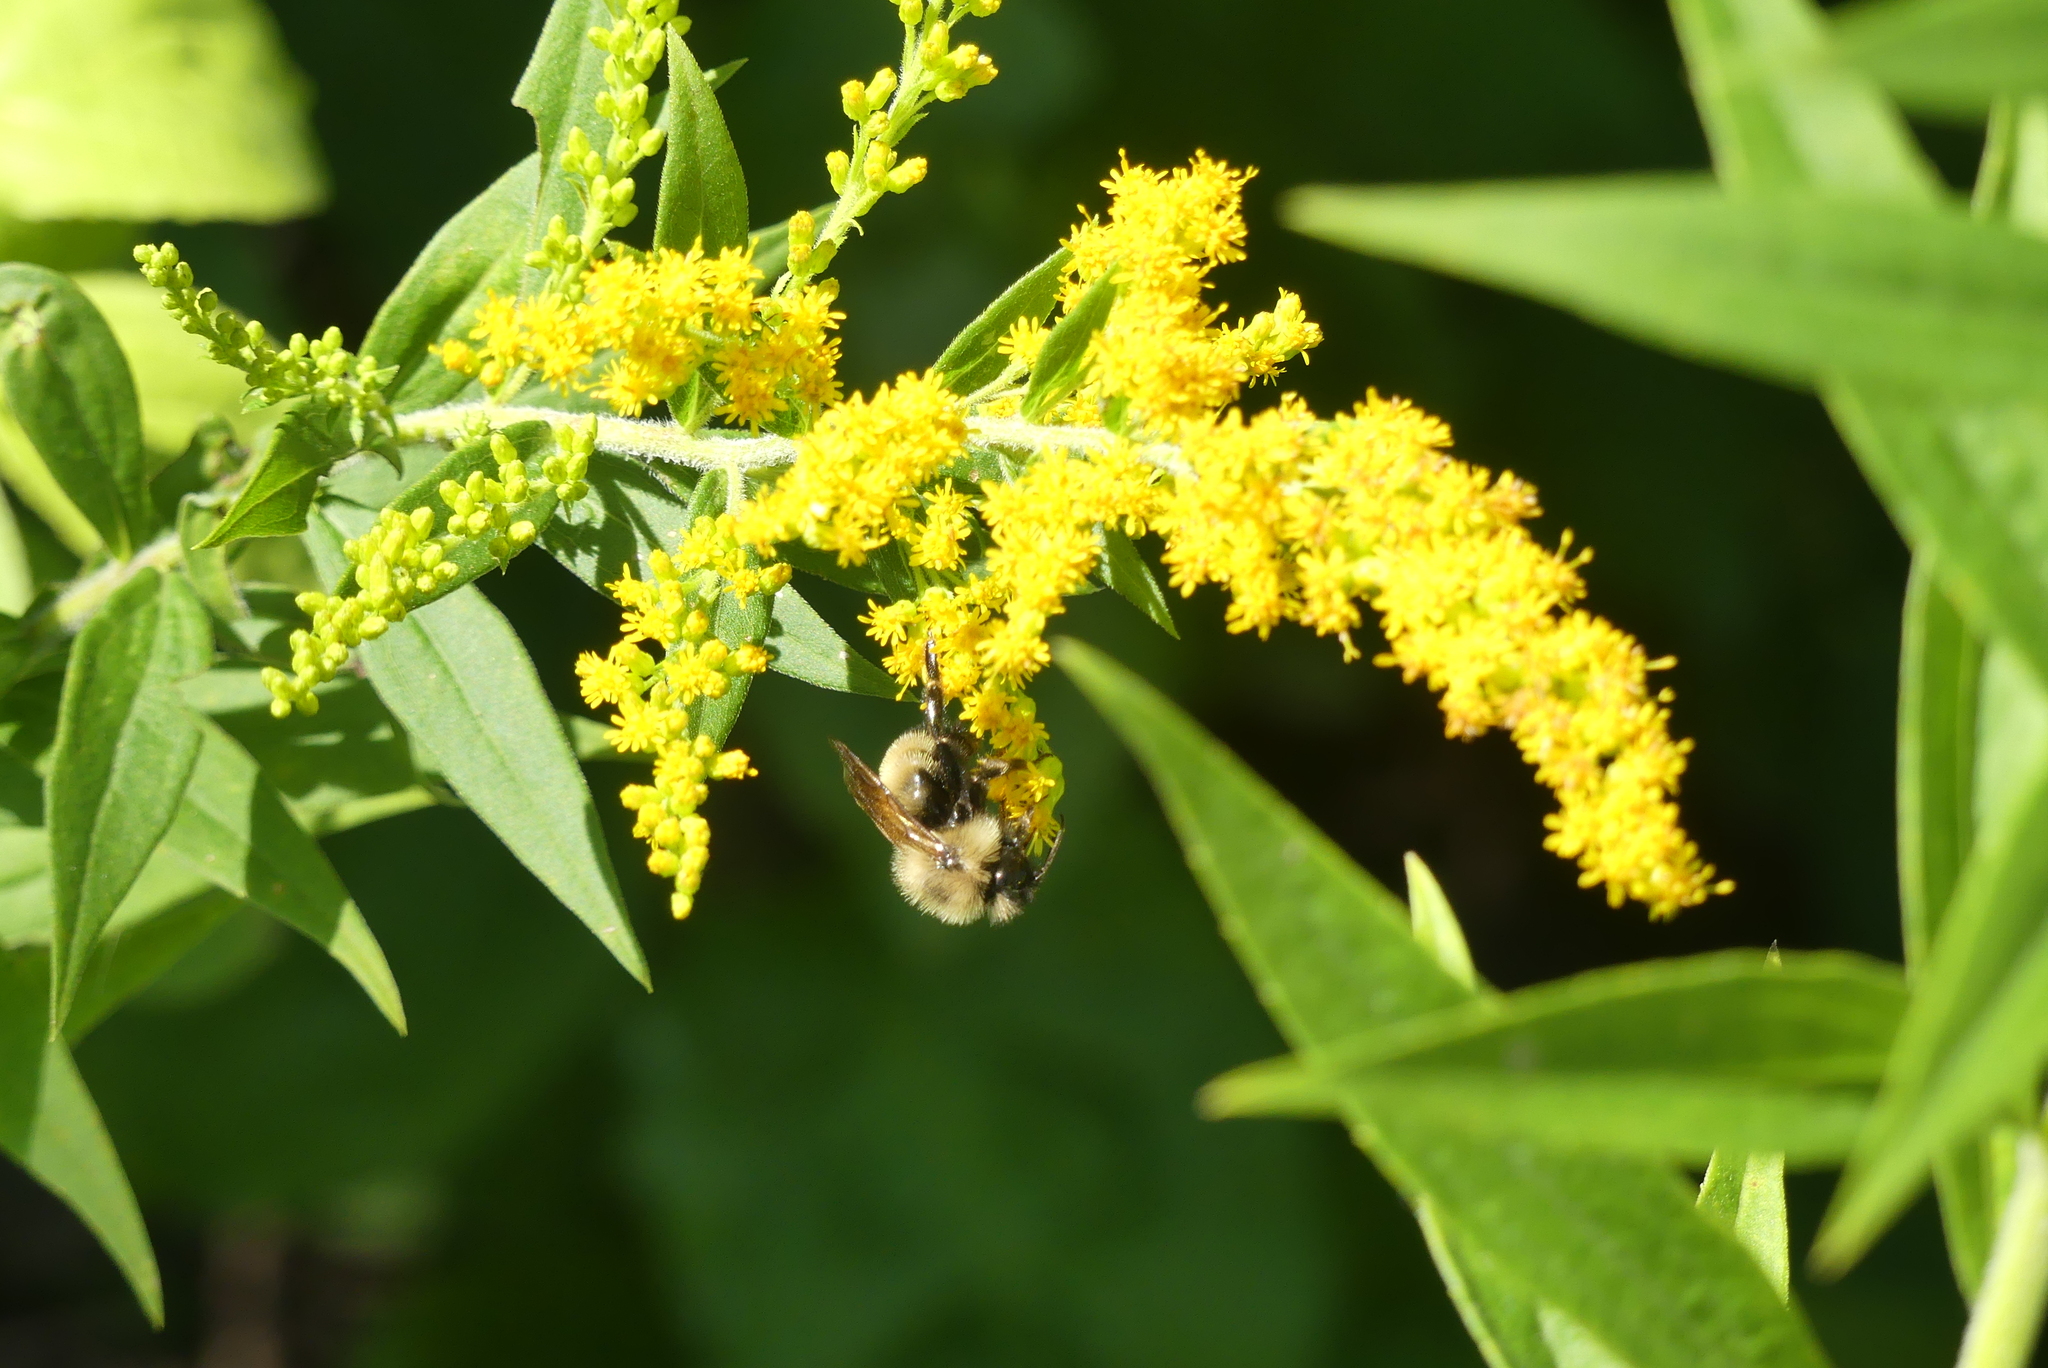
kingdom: Animalia
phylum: Arthropoda
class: Insecta
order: Hymenoptera
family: Apidae
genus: Bombus
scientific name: Bombus citrinus
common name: Lemon cuckoo bumble bee
